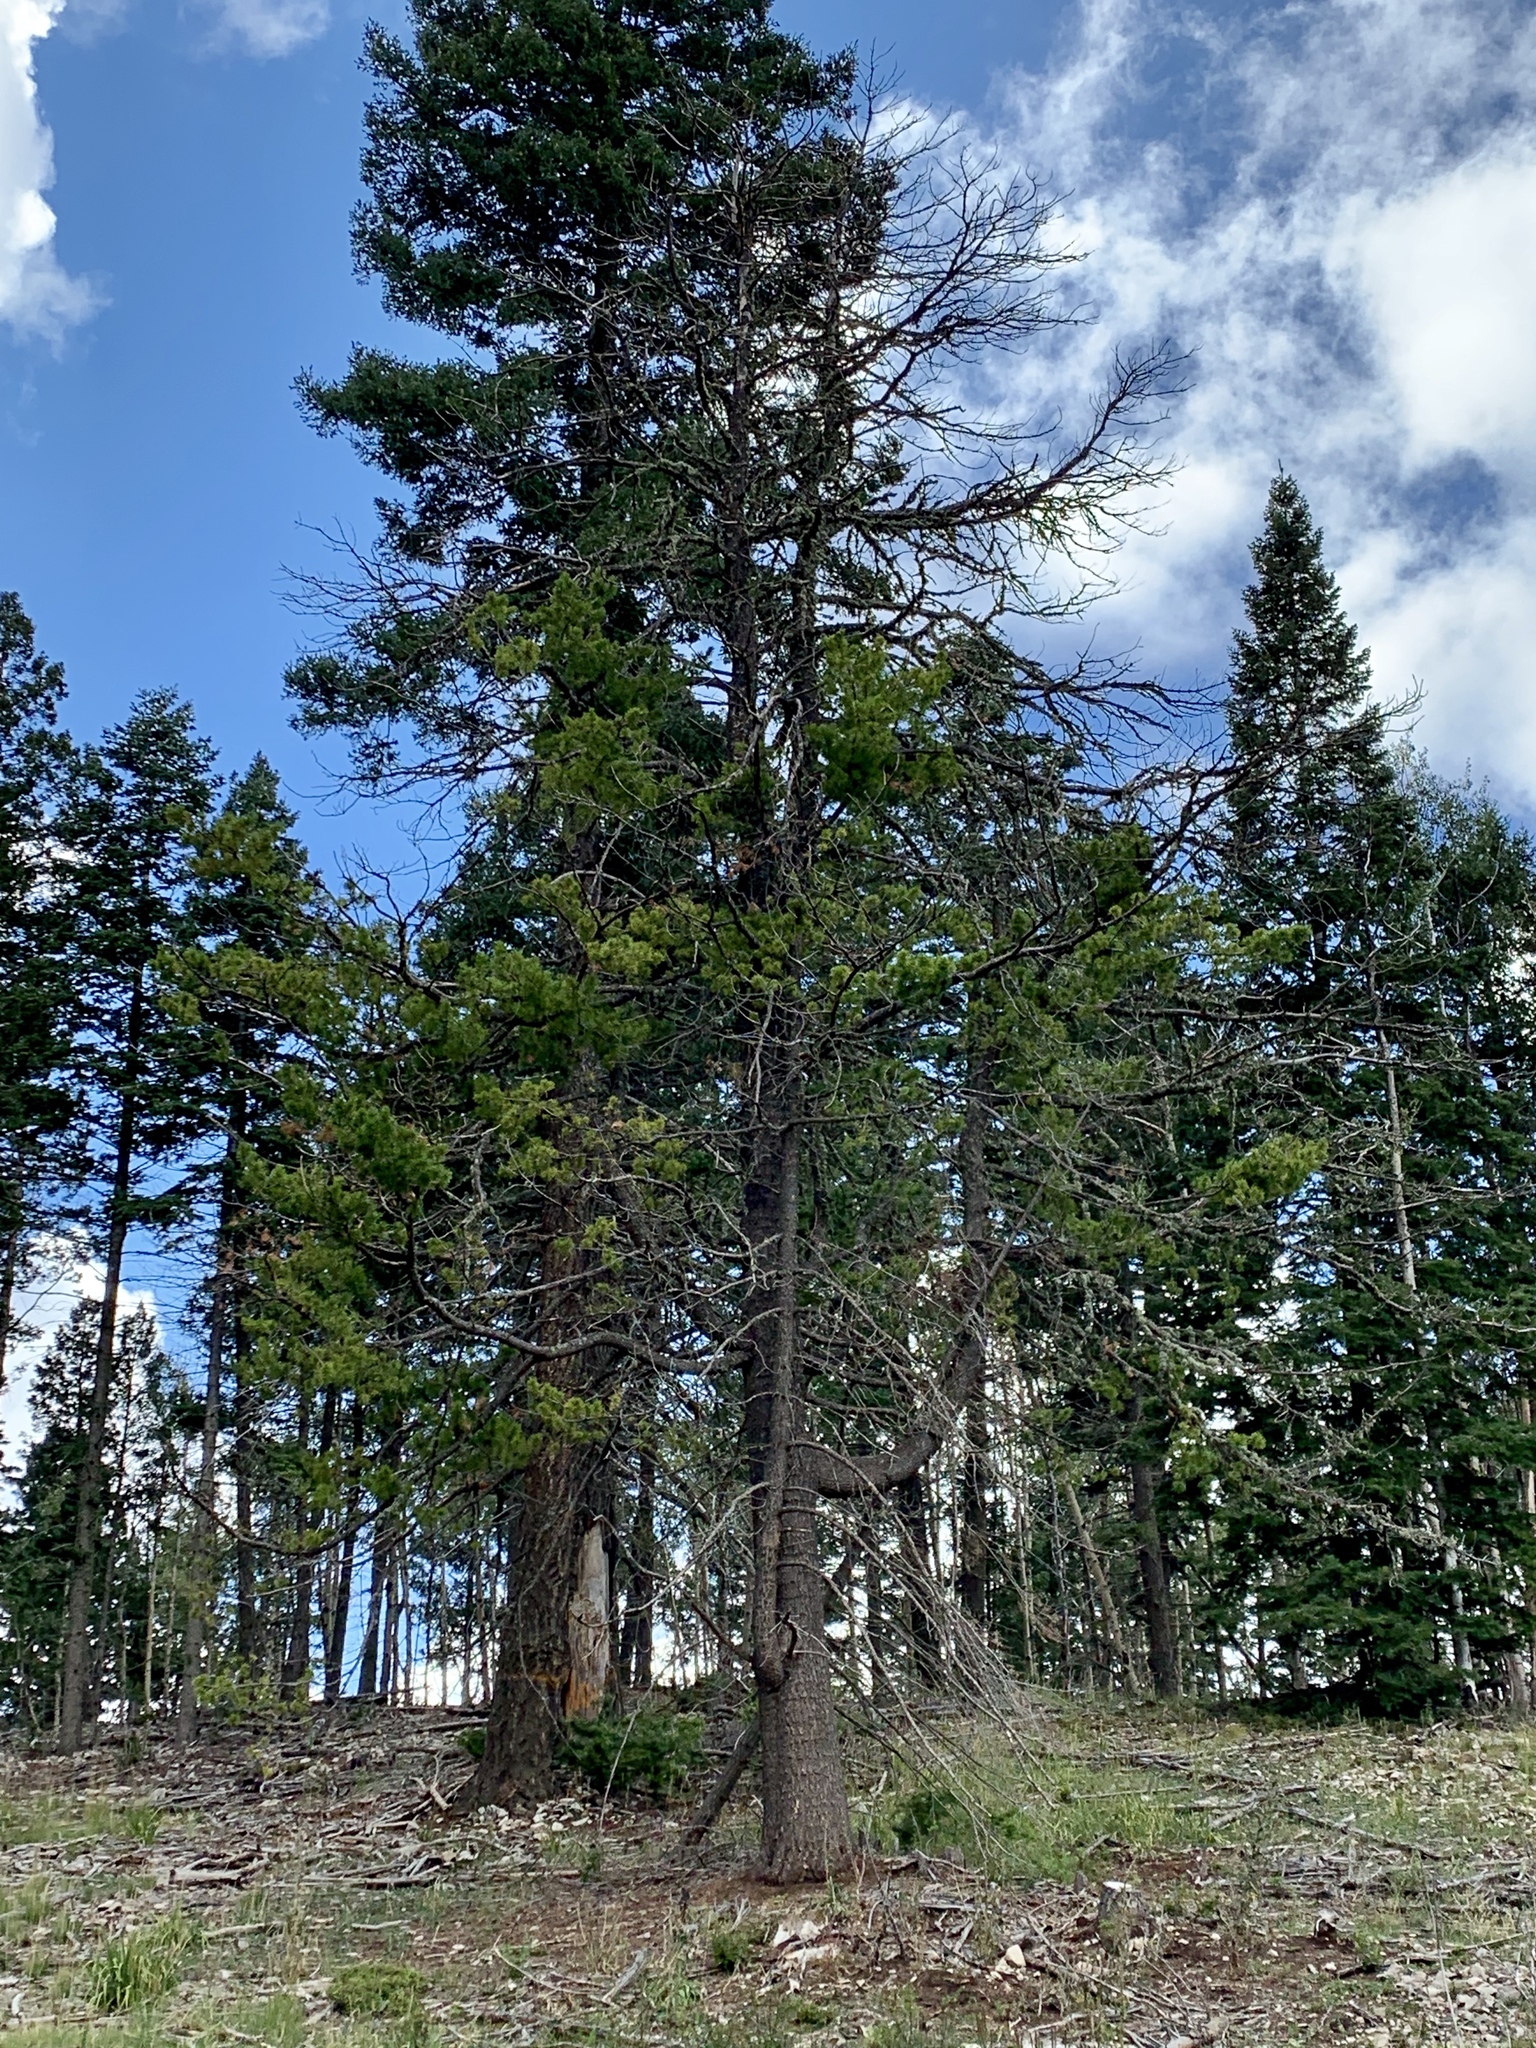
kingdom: Plantae
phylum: Tracheophyta
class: Pinopsida
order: Pinales
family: Pinaceae
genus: Pinus
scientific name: Pinus strobiformis
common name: Southwestern white pine
